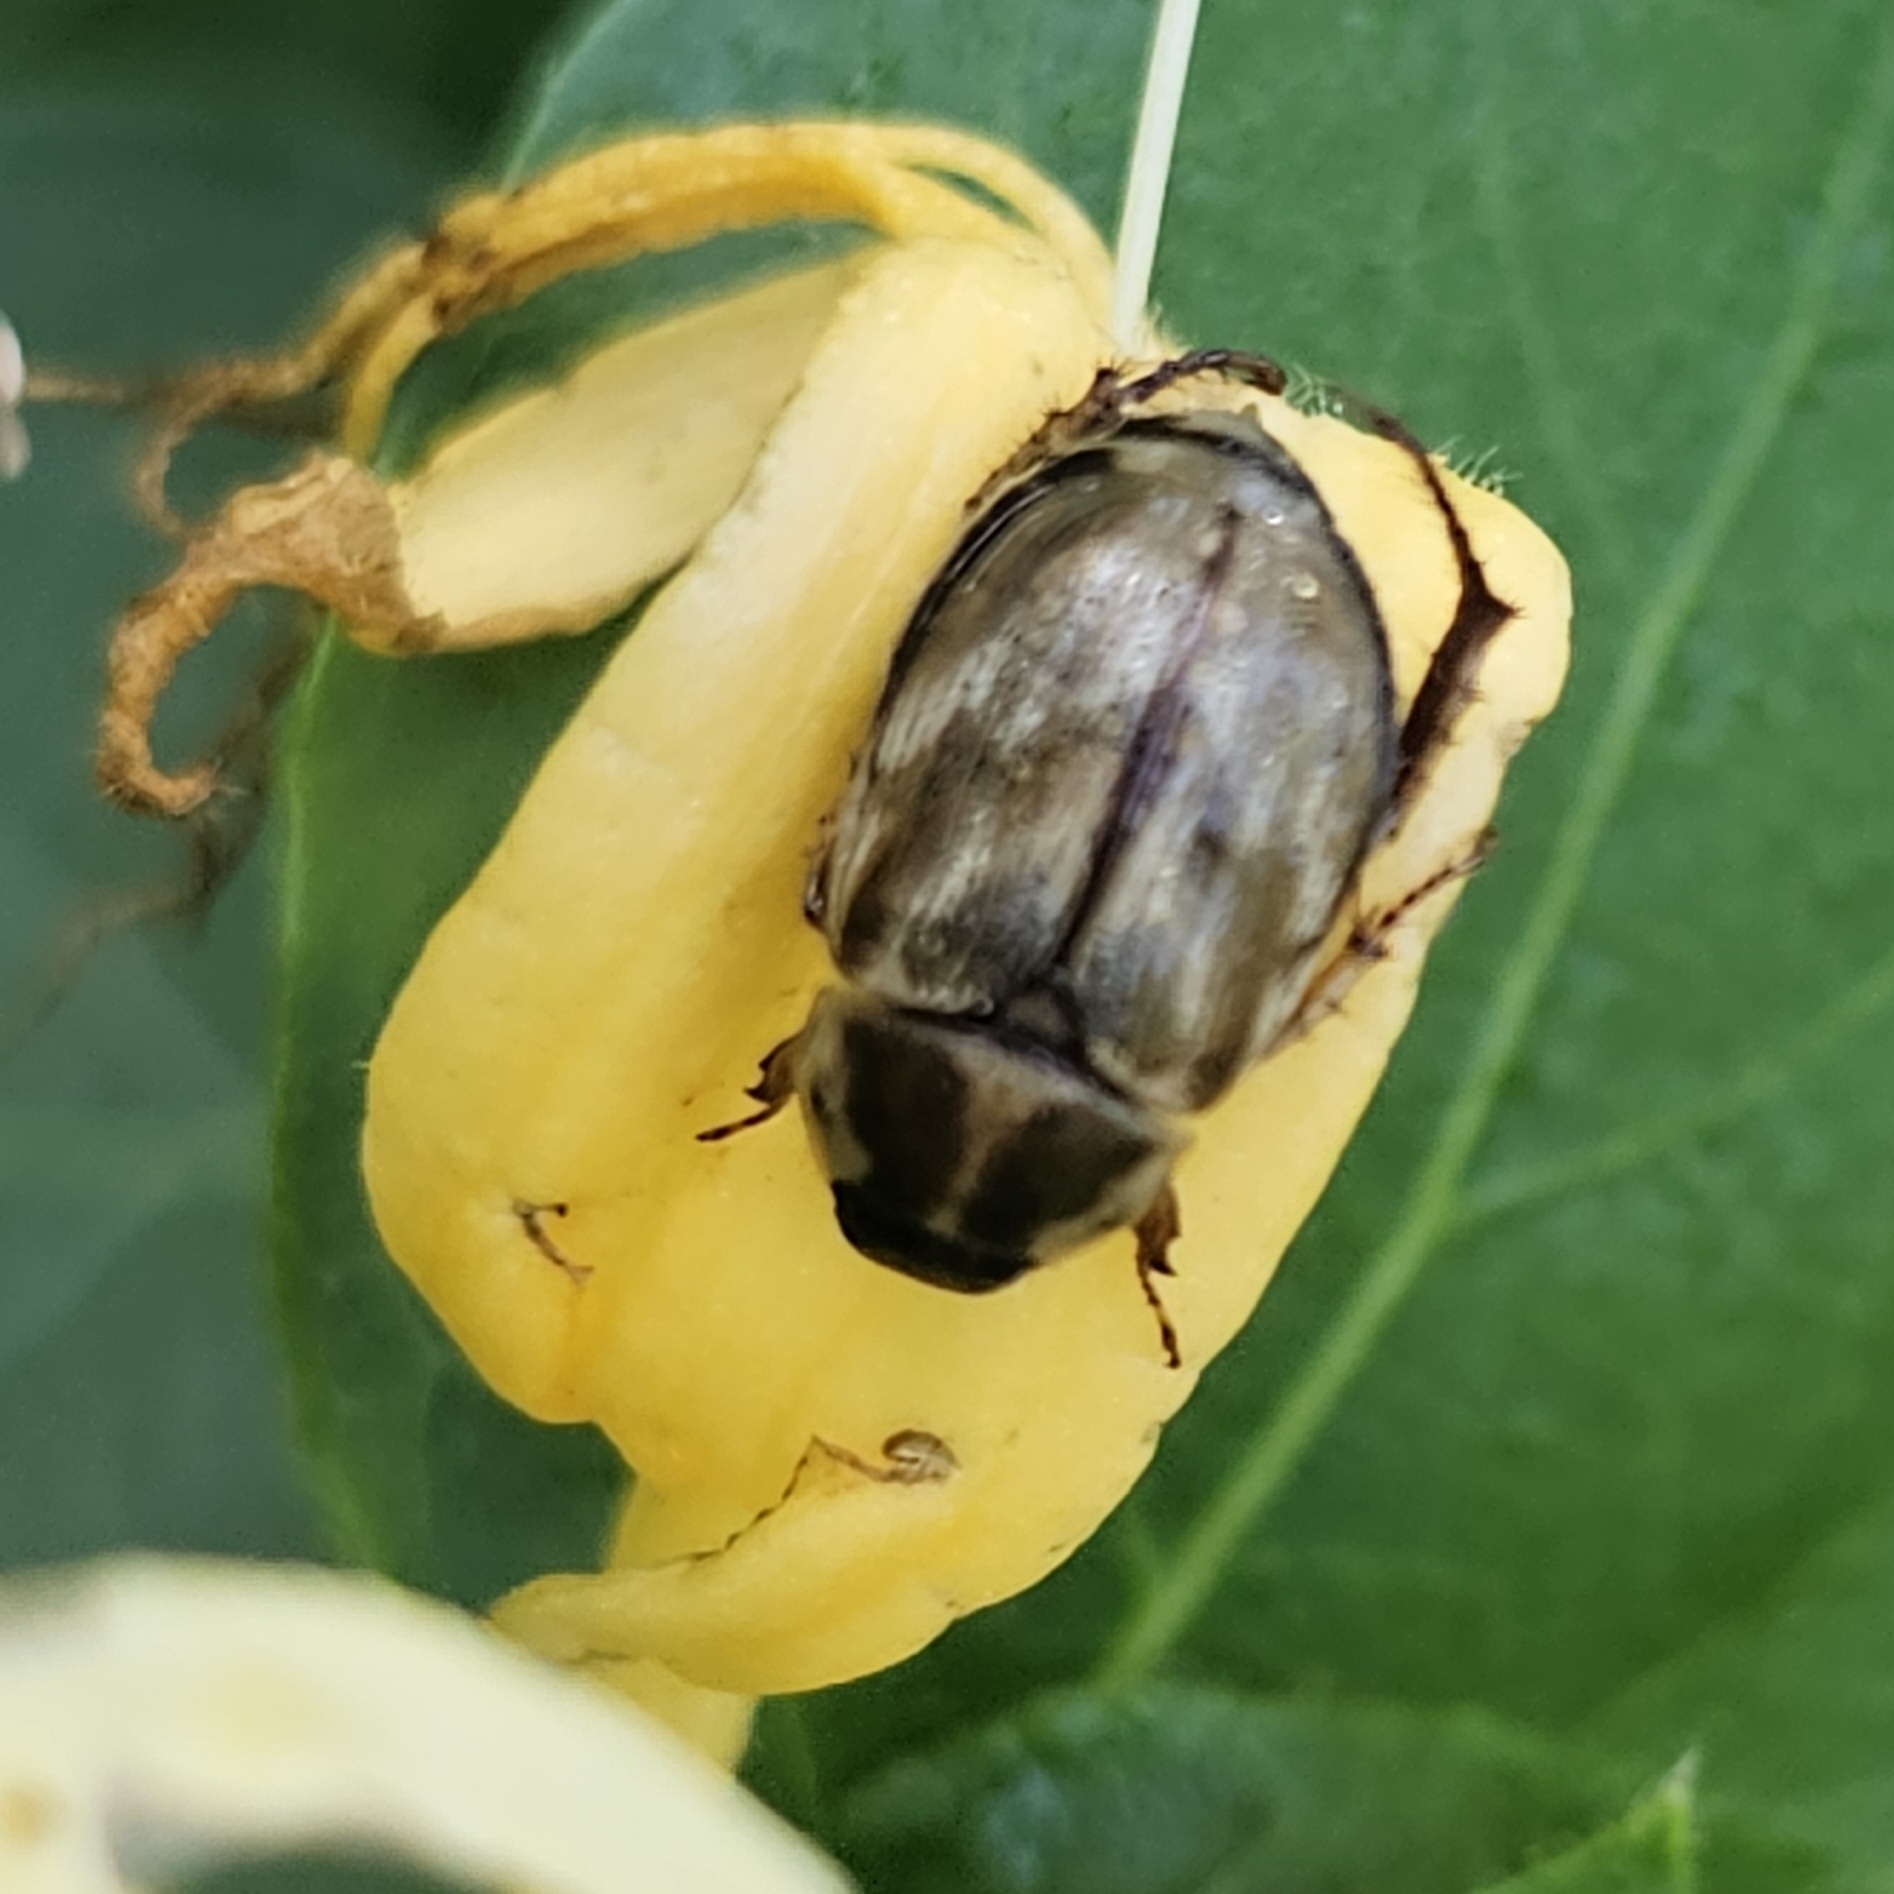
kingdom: Animalia
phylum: Arthropoda
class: Insecta
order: Coleoptera
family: Scarabaeidae
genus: Exomala
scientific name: Exomala orientalis
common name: Oriental beetle
